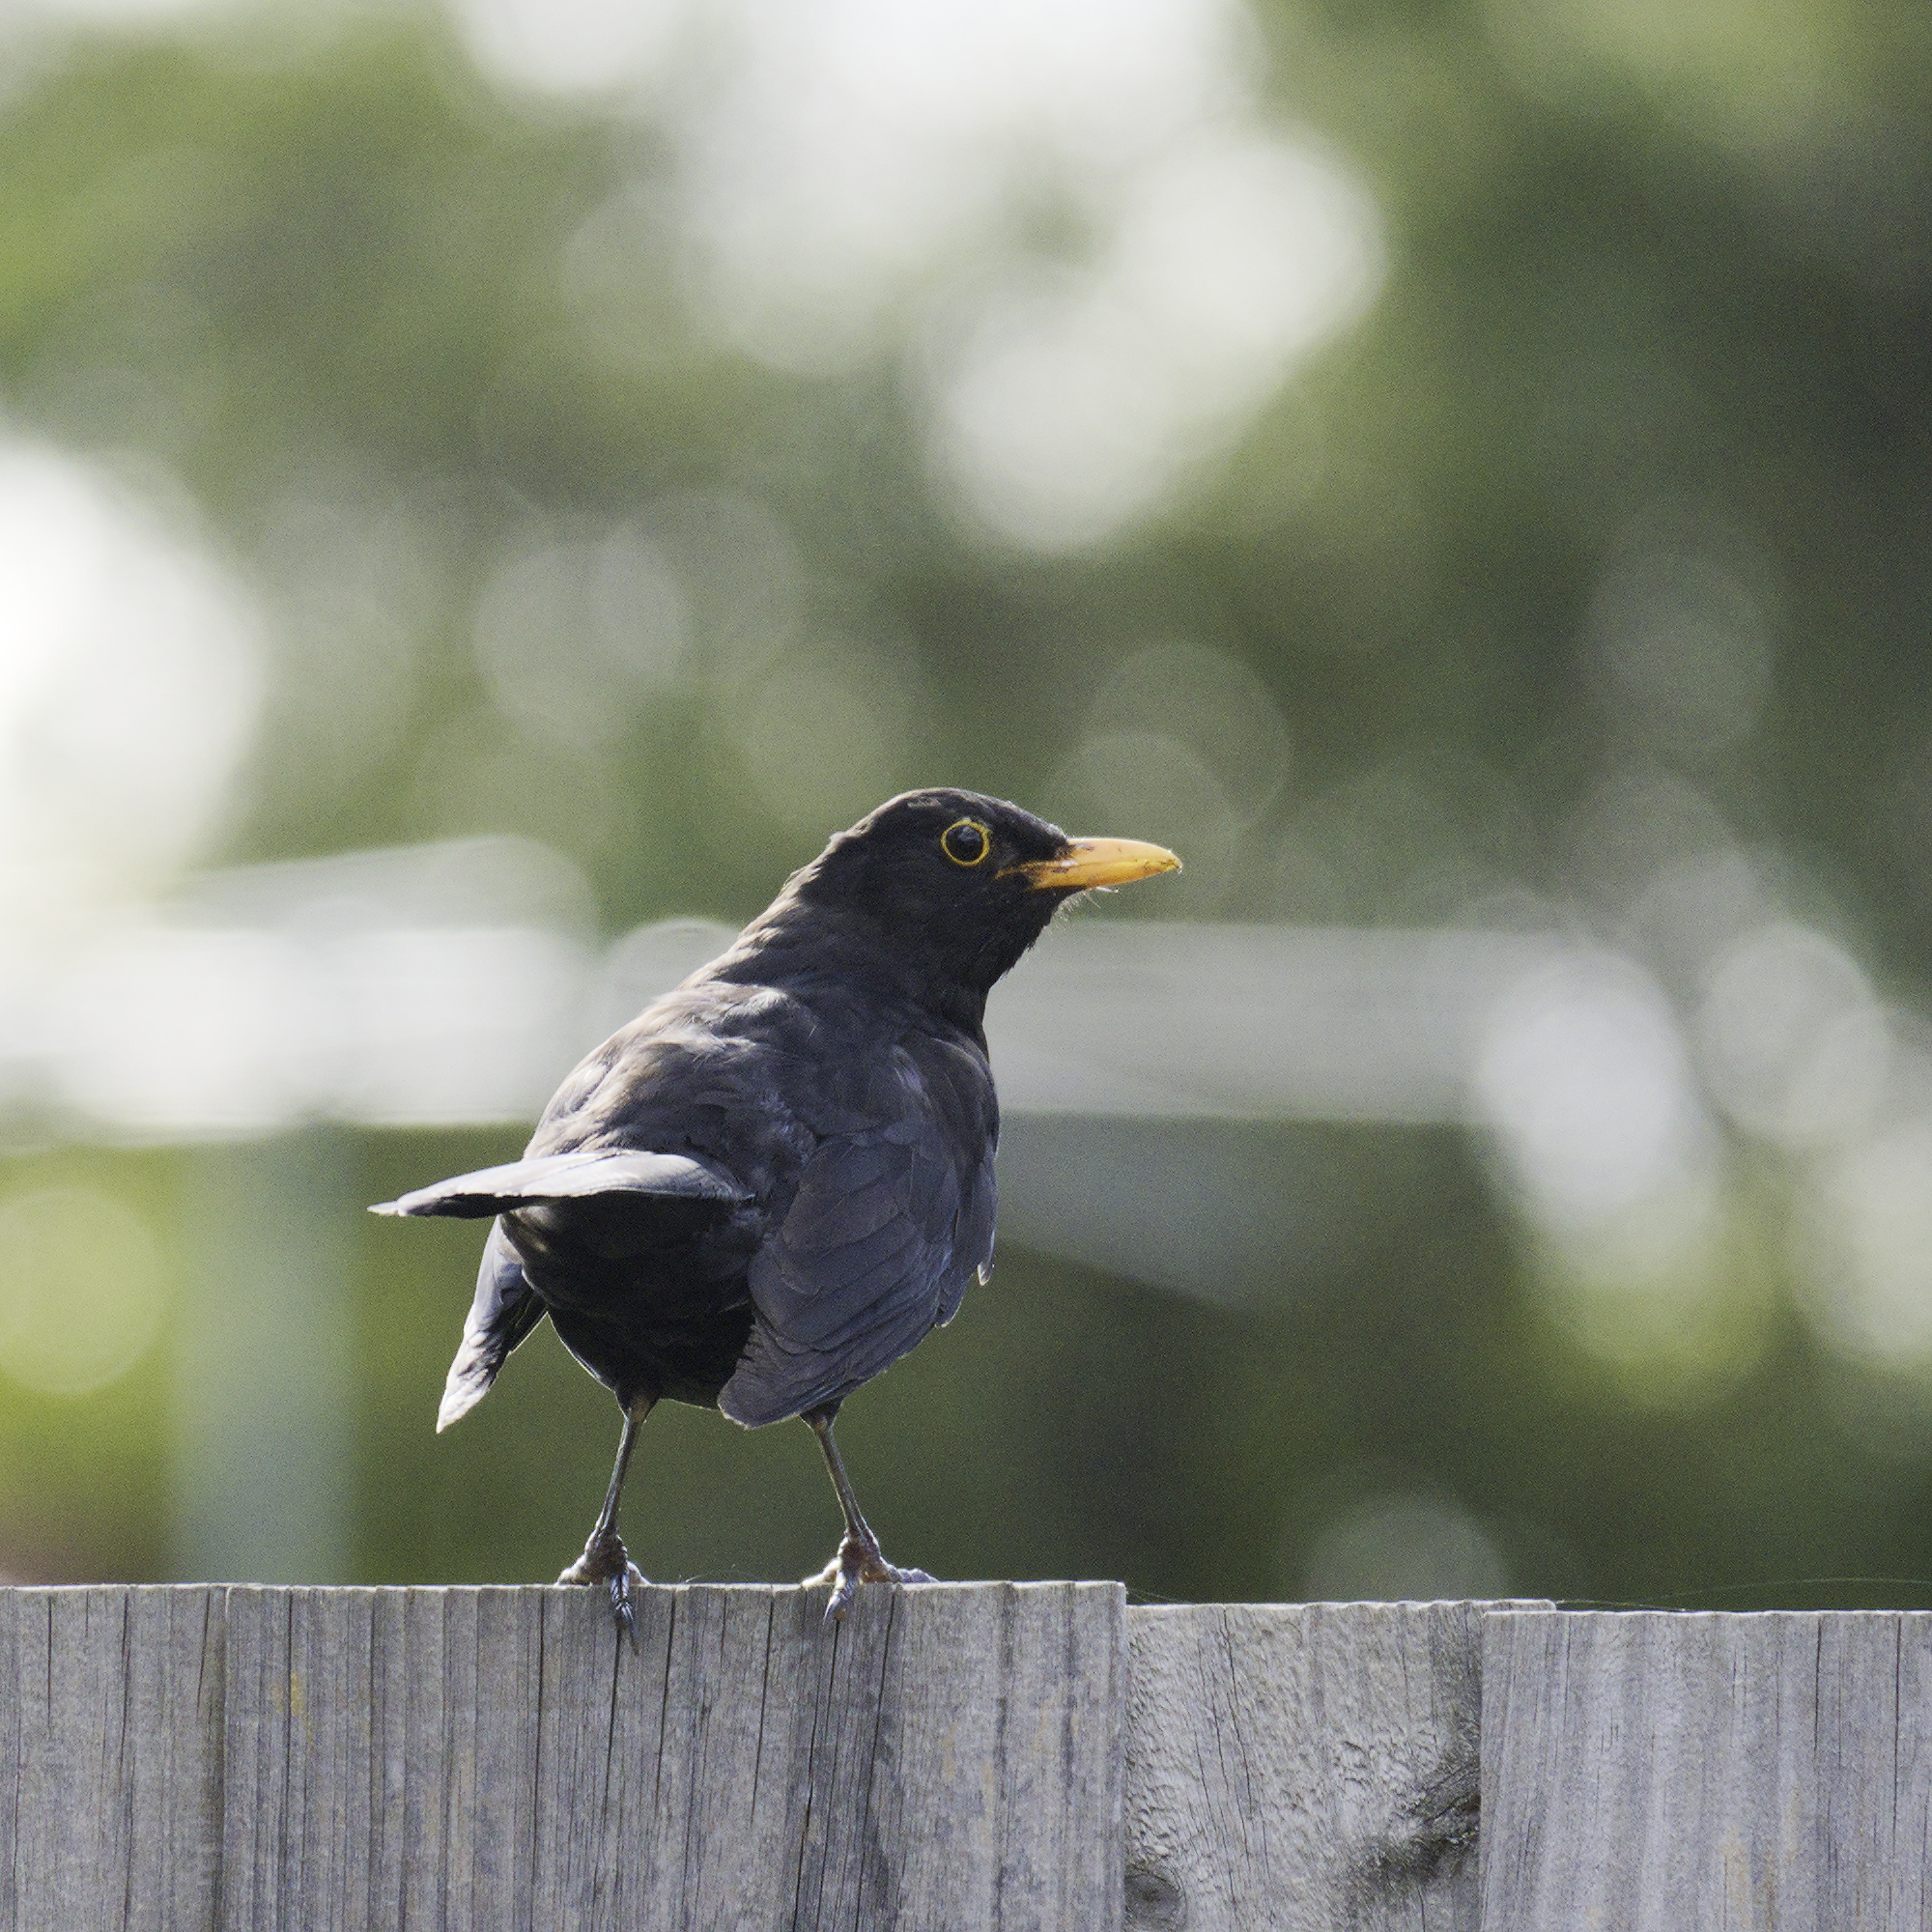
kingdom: Animalia
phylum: Chordata
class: Aves
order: Passeriformes
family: Turdidae
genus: Turdus
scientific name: Turdus merula
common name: Common blackbird
